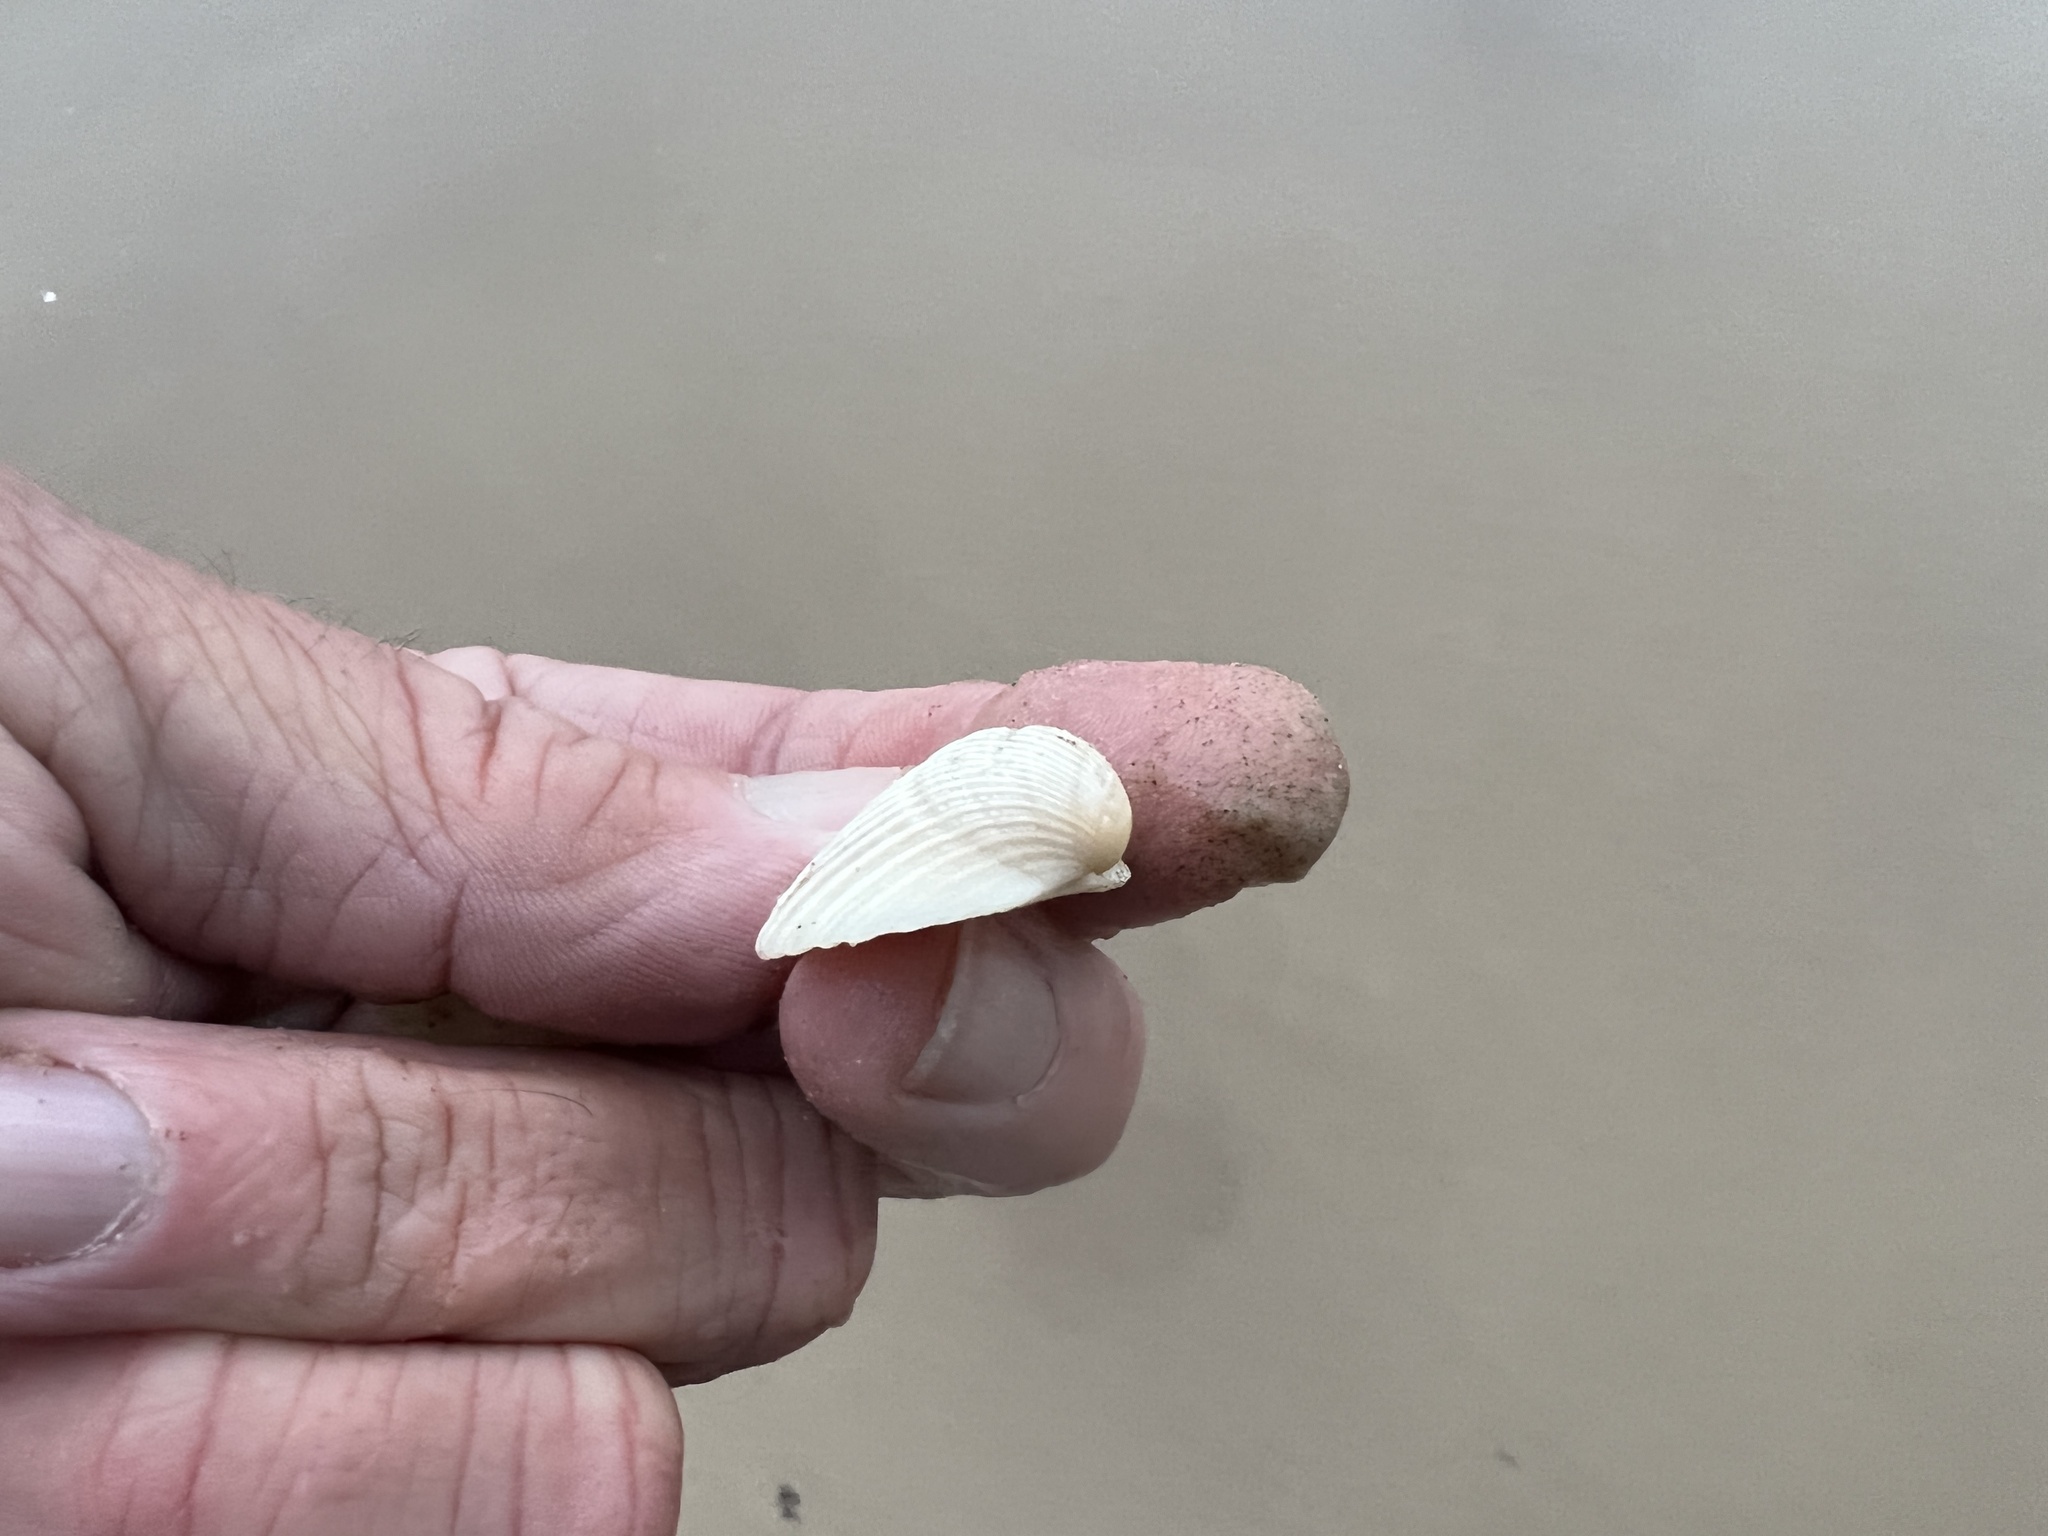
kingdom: Animalia
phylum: Mollusca
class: Bivalvia
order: Arcida
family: Noetiidae
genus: Noetia
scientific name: Noetia ponderosa
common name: Ponderous ark
